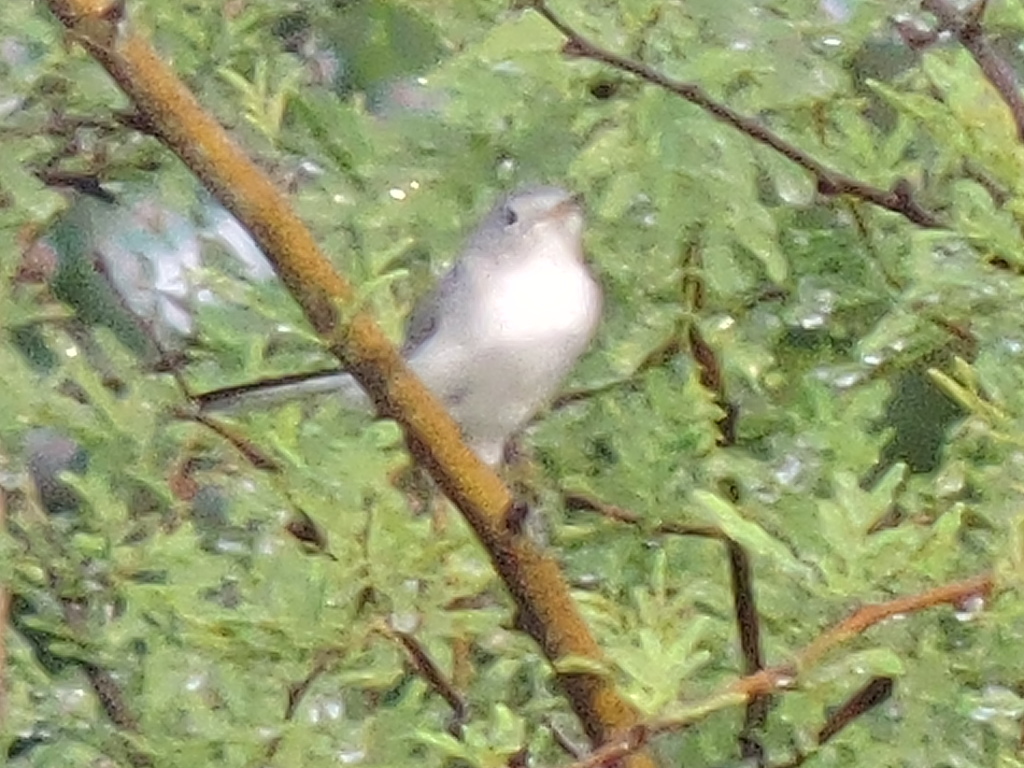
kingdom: Animalia
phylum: Chordata
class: Aves
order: Passeriformes
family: Polioptilidae
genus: Polioptila
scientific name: Polioptila caerulea
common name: Blue-gray gnatcatcher
